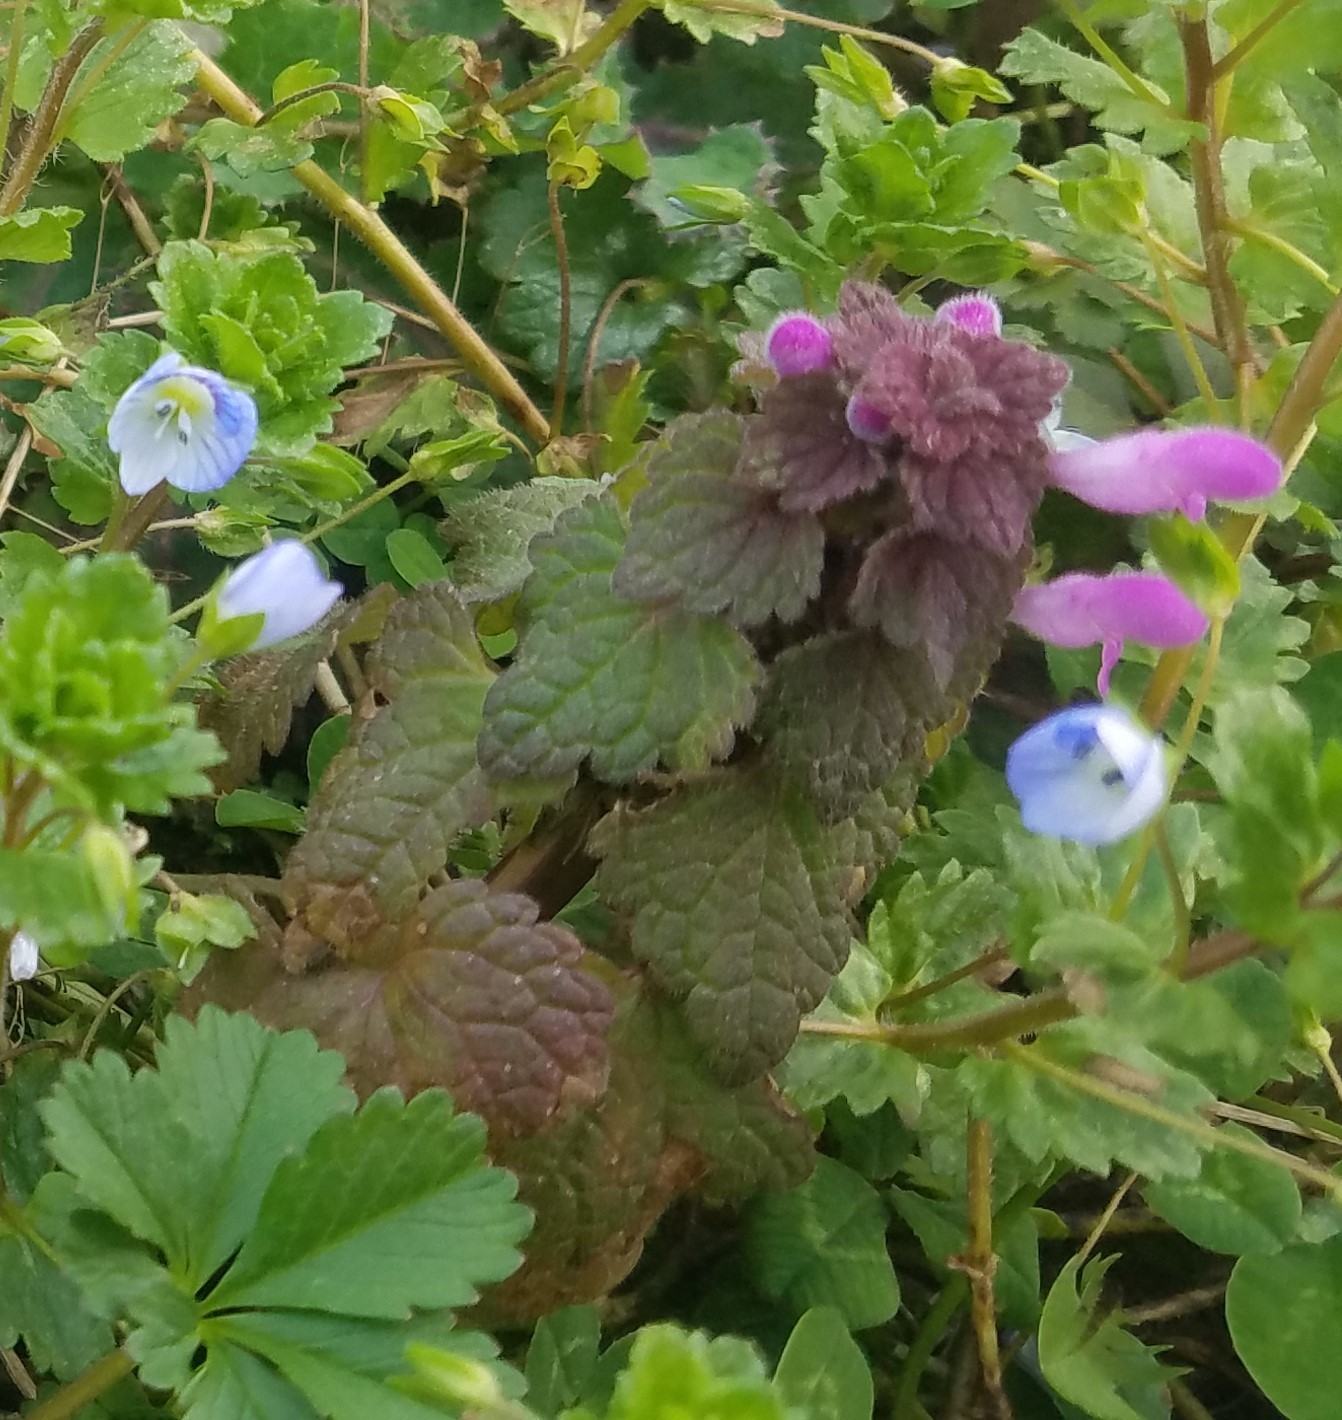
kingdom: Plantae
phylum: Tracheophyta
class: Magnoliopsida
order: Lamiales
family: Lamiaceae
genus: Lamium
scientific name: Lamium purpureum
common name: Red dead-nettle
